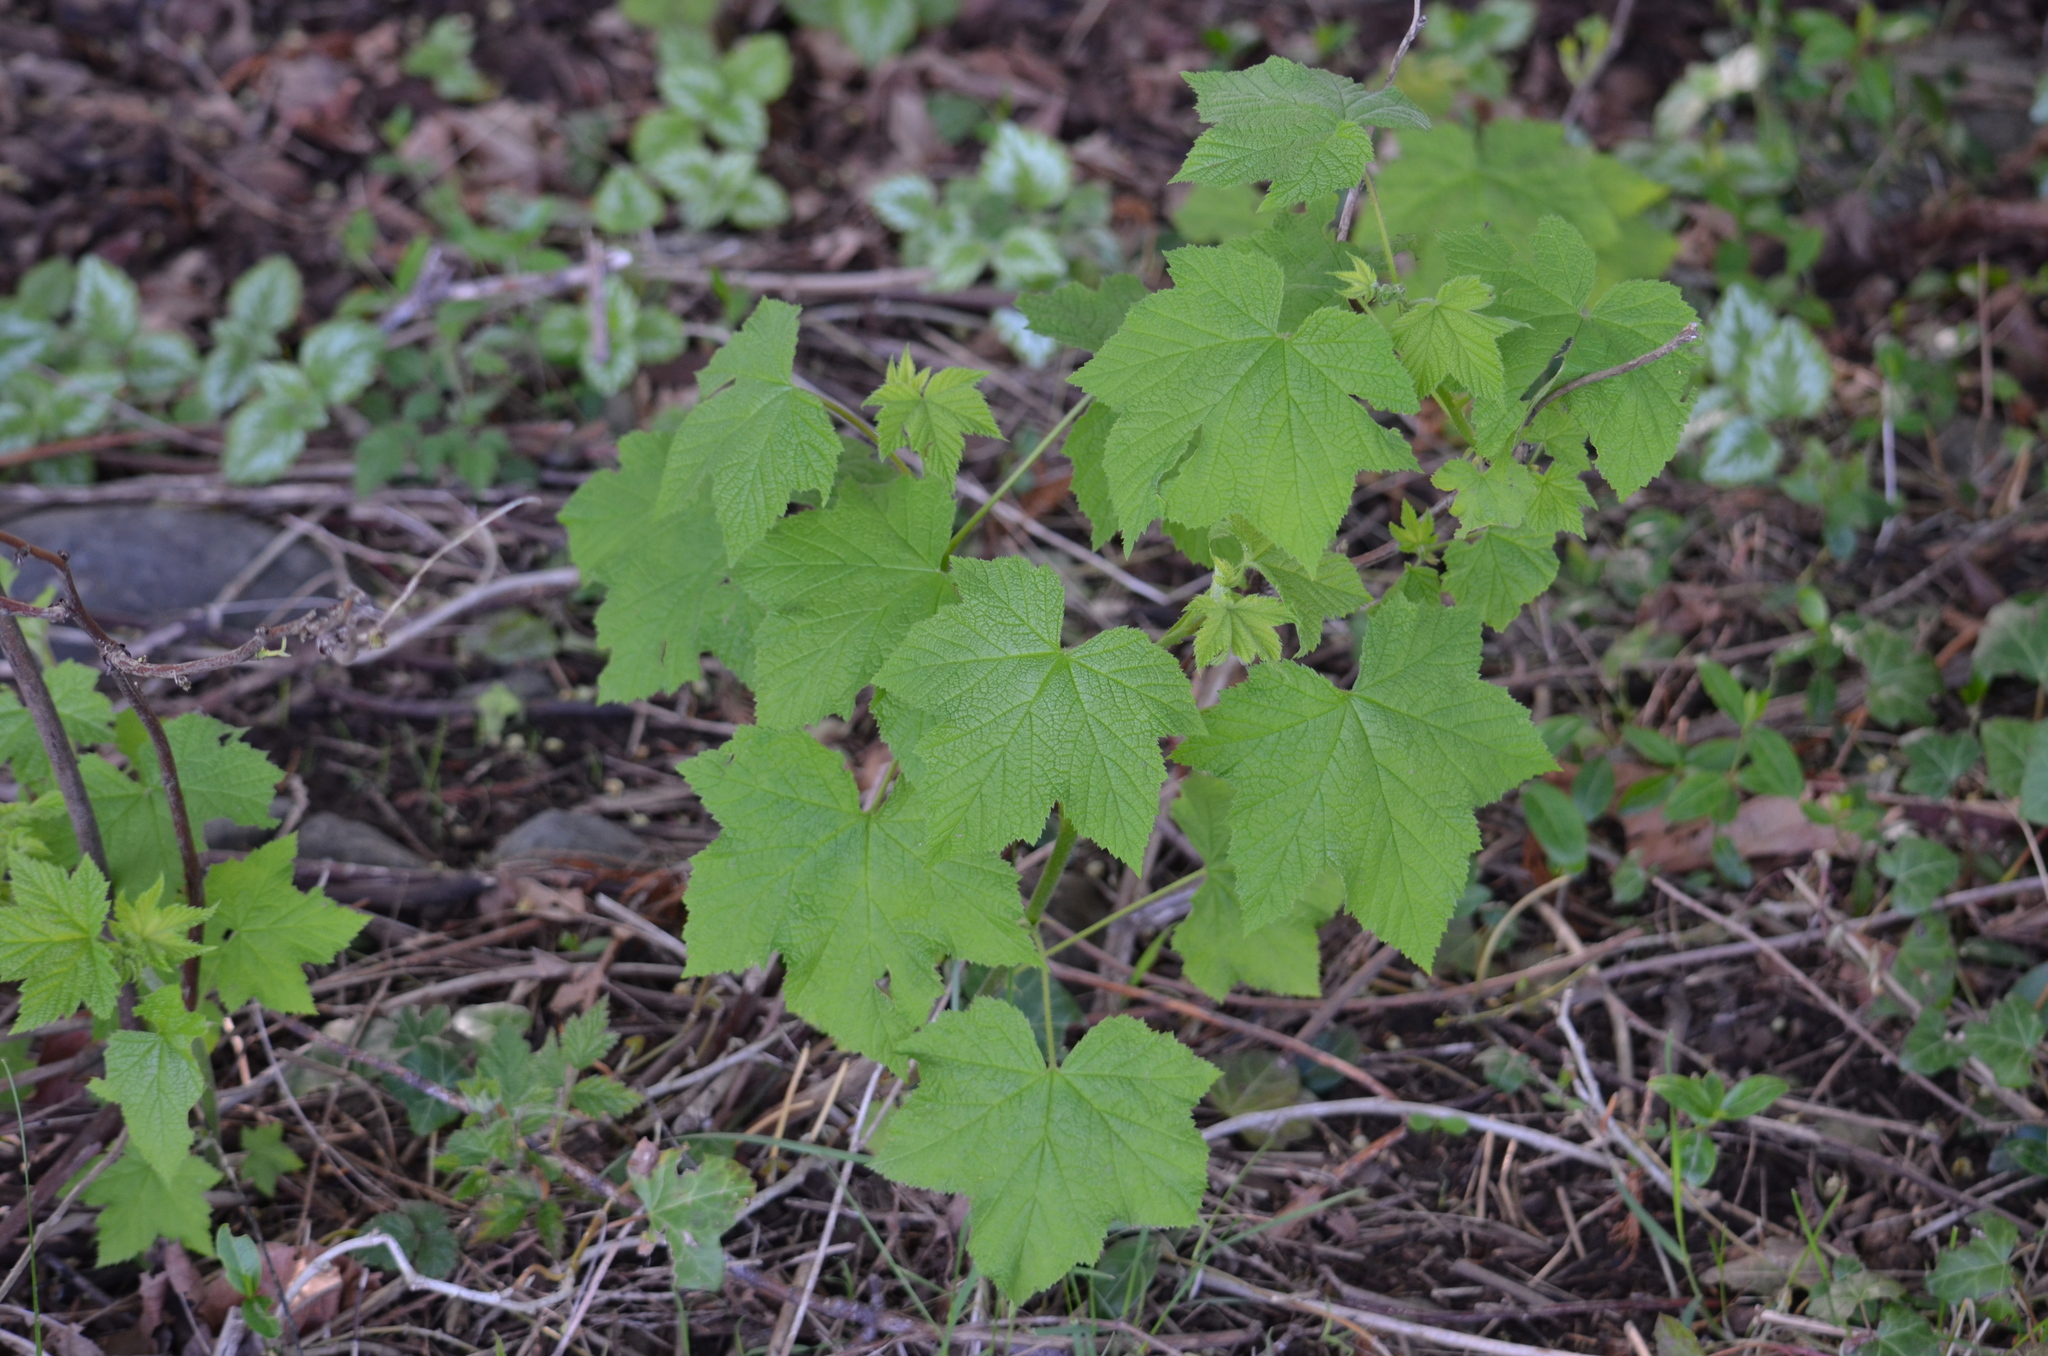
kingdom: Plantae
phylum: Tracheophyta
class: Magnoliopsida
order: Rosales
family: Rosaceae
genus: Rubus
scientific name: Rubus parviflorus
